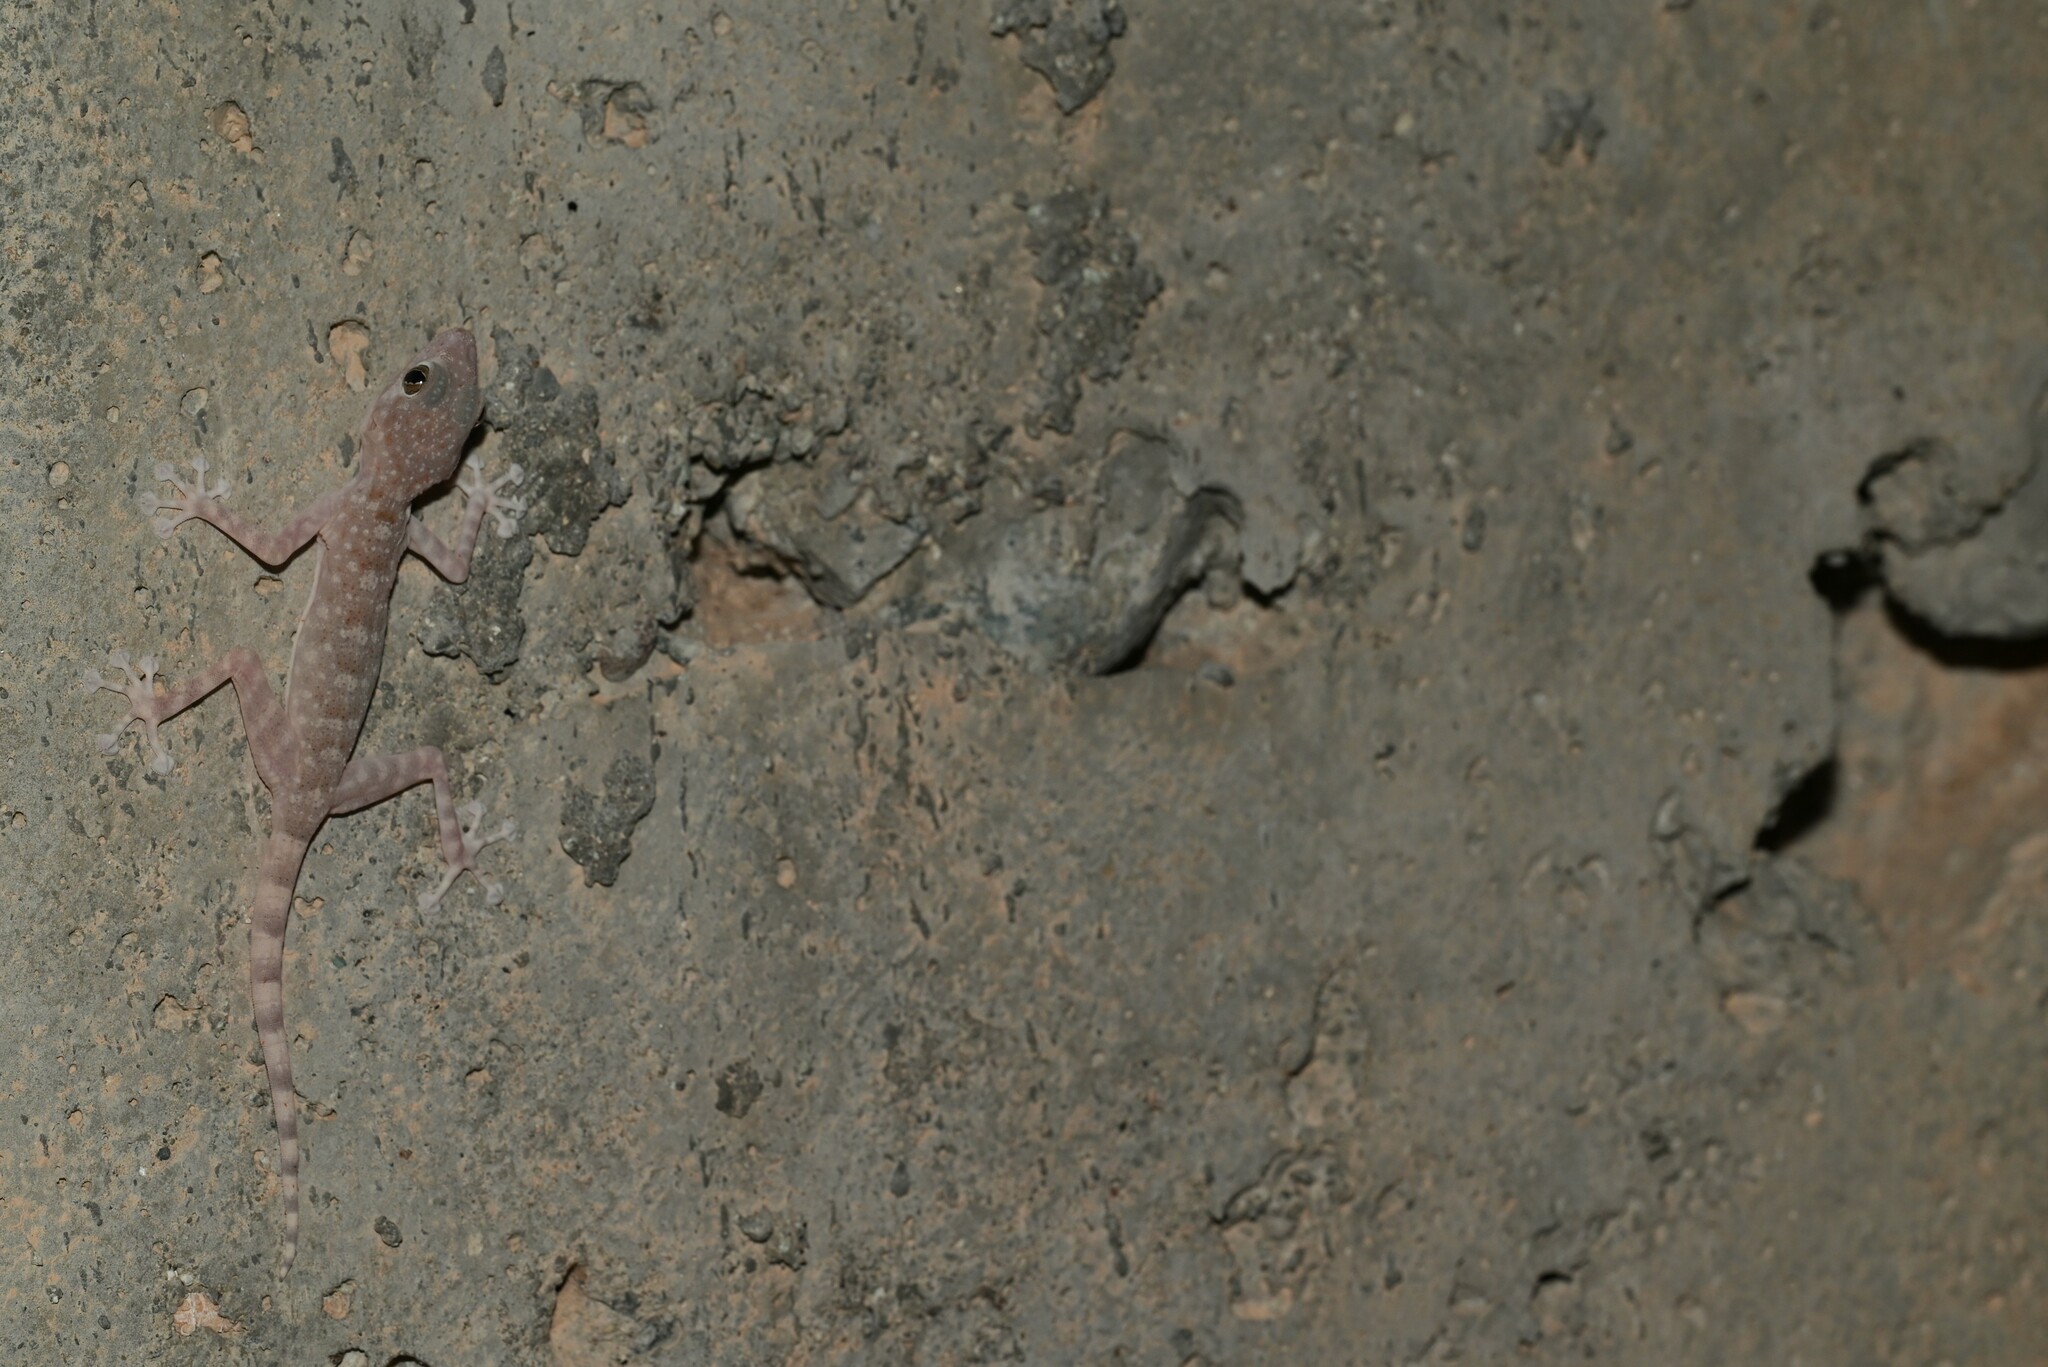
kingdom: Animalia
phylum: Chordata
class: Squamata
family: Phyllodactylidae
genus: Ptyodactylus
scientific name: Ptyodactylus orlovi
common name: Orlov's fan-footed gecko
